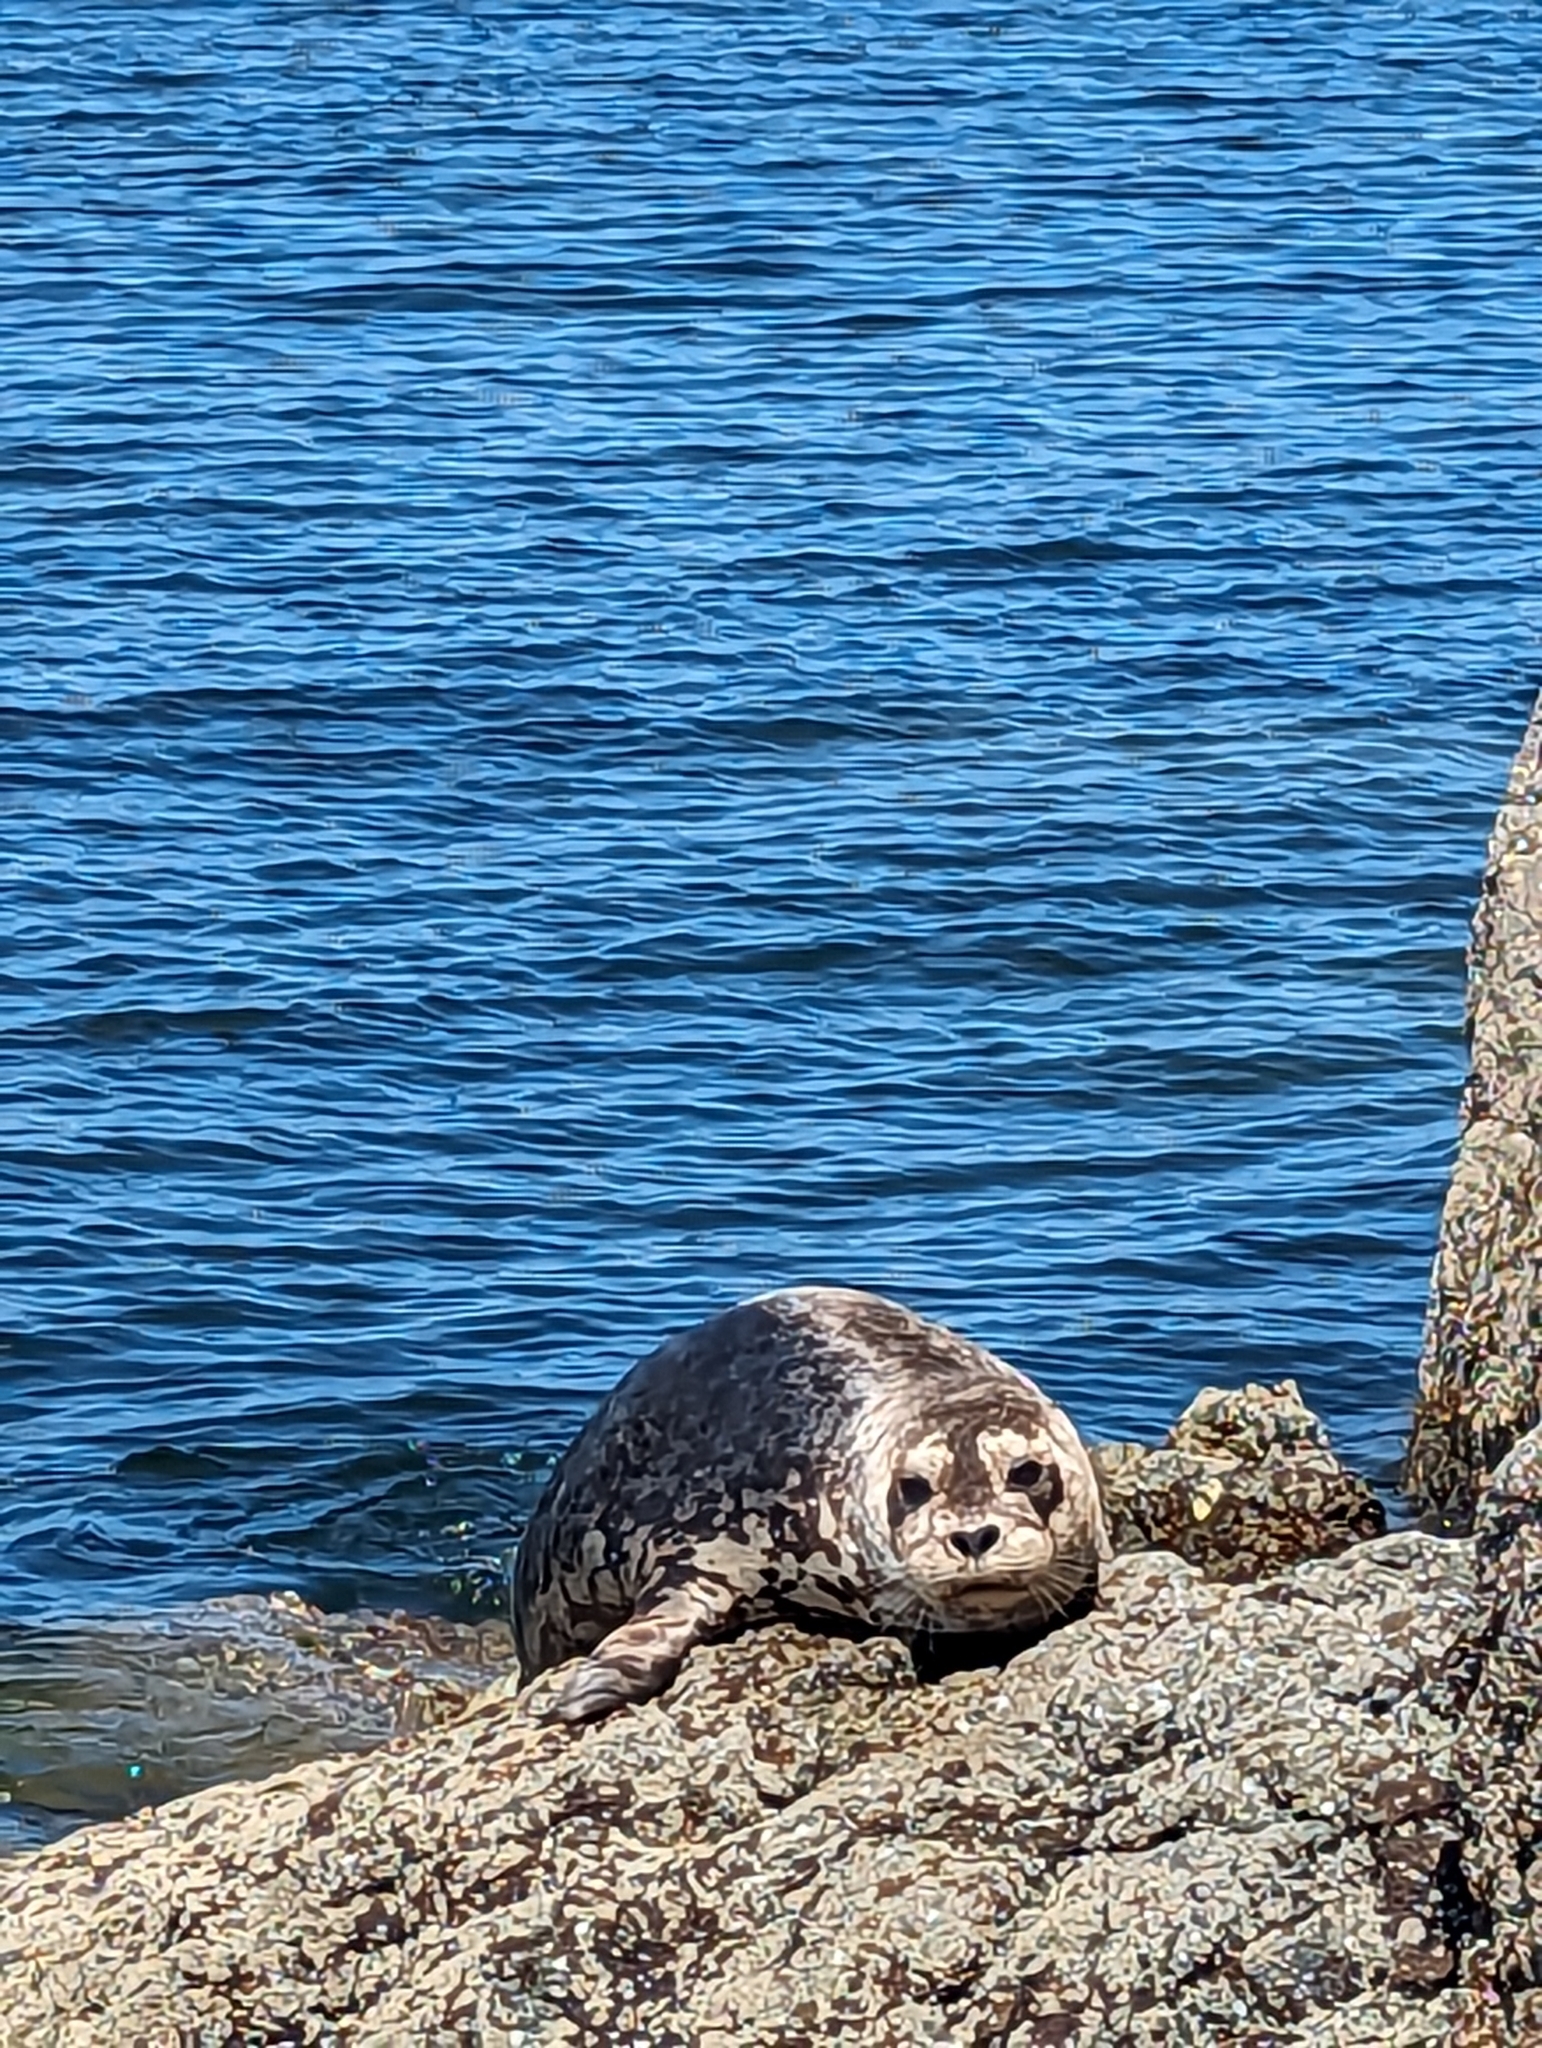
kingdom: Animalia
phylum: Chordata
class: Mammalia
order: Carnivora
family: Phocidae
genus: Phoca
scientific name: Phoca vitulina
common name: Harbor seal
